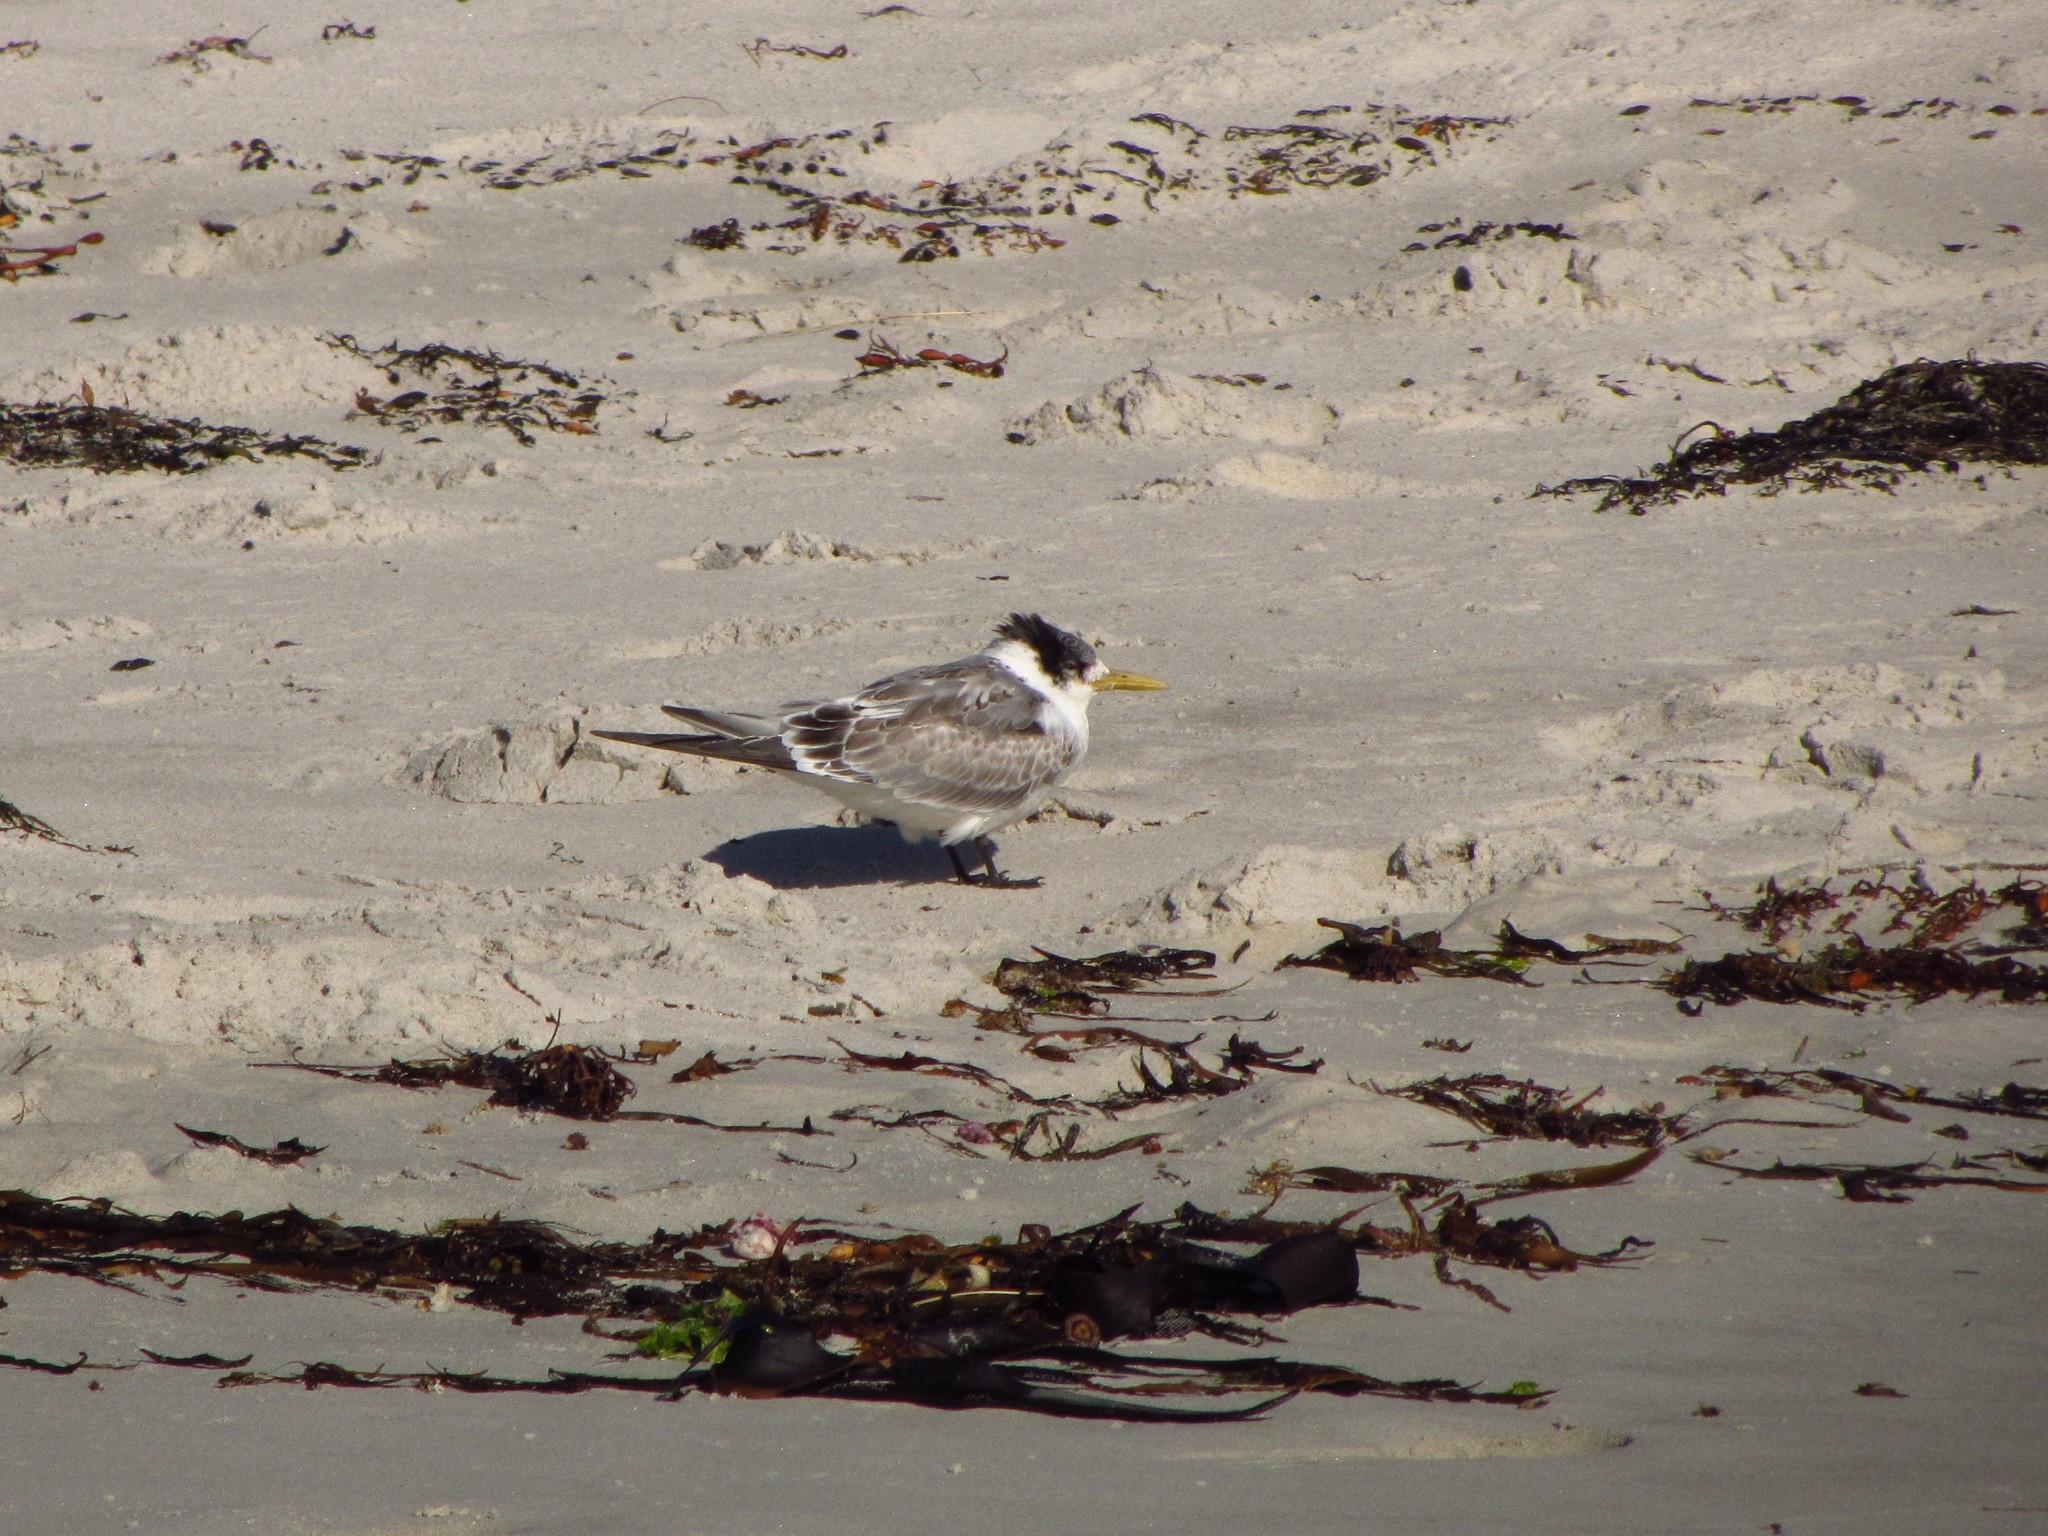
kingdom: Animalia
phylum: Chordata
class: Aves
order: Charadriiformes
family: Laridae
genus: Thalasseus
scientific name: Thalasseus bergii
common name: Greater crested tern
